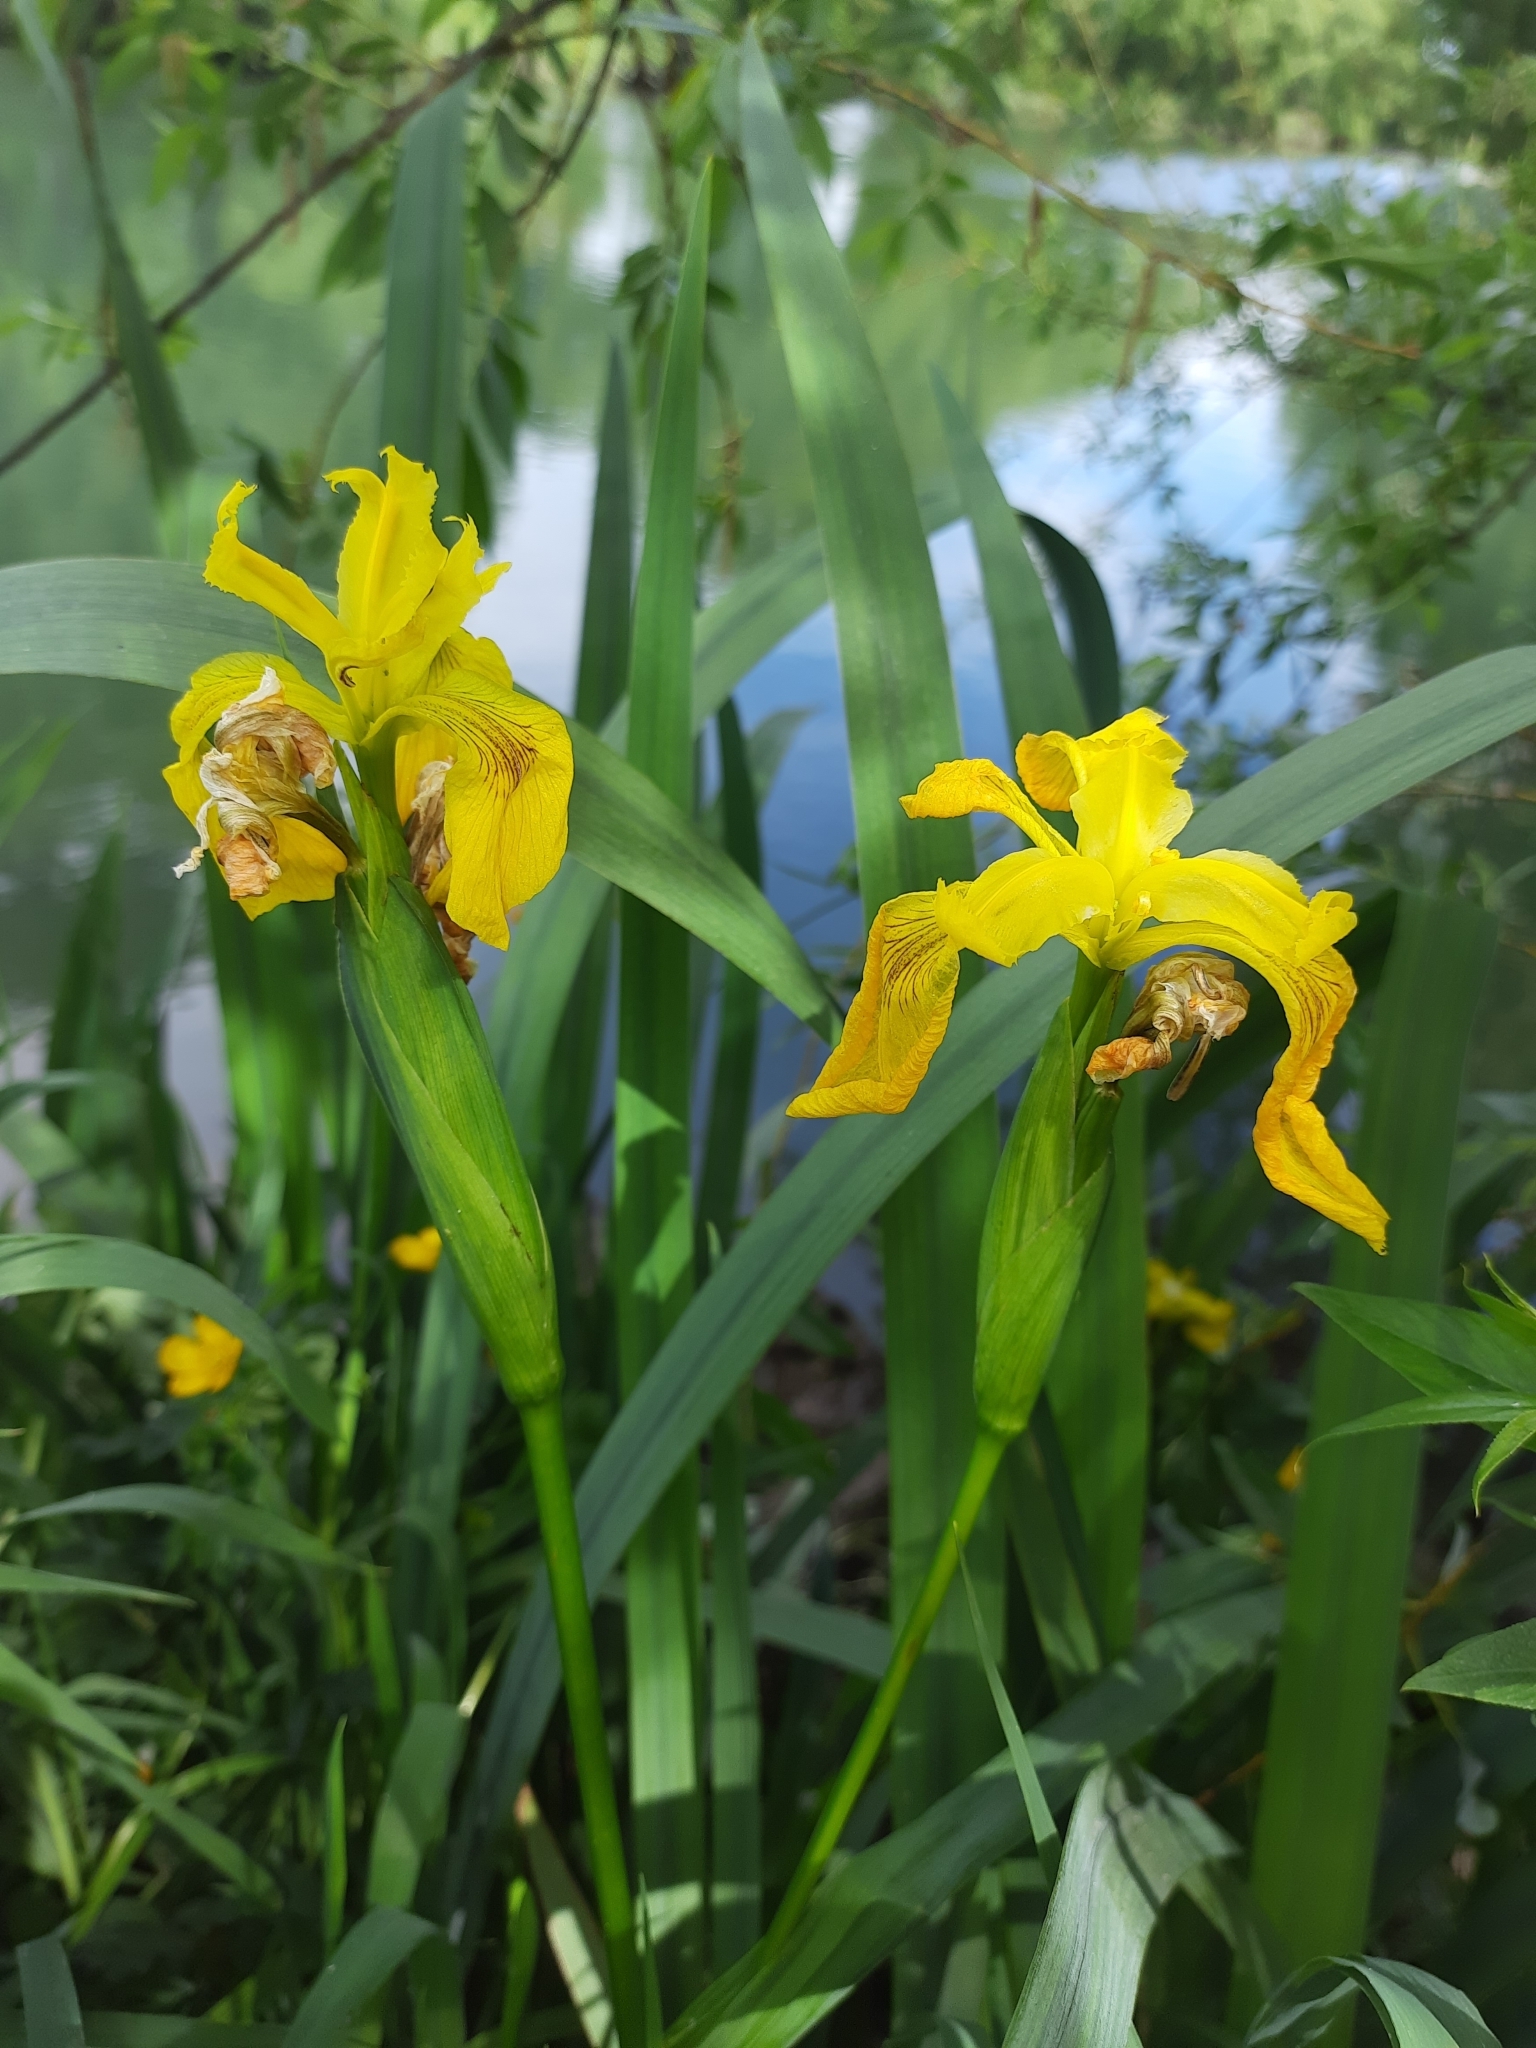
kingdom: Plantae
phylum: Tracheophyta
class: Liliopsida
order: Asparagales
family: Iridaceae
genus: Iris
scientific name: Iris pseudacorus
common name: Yellow flag
